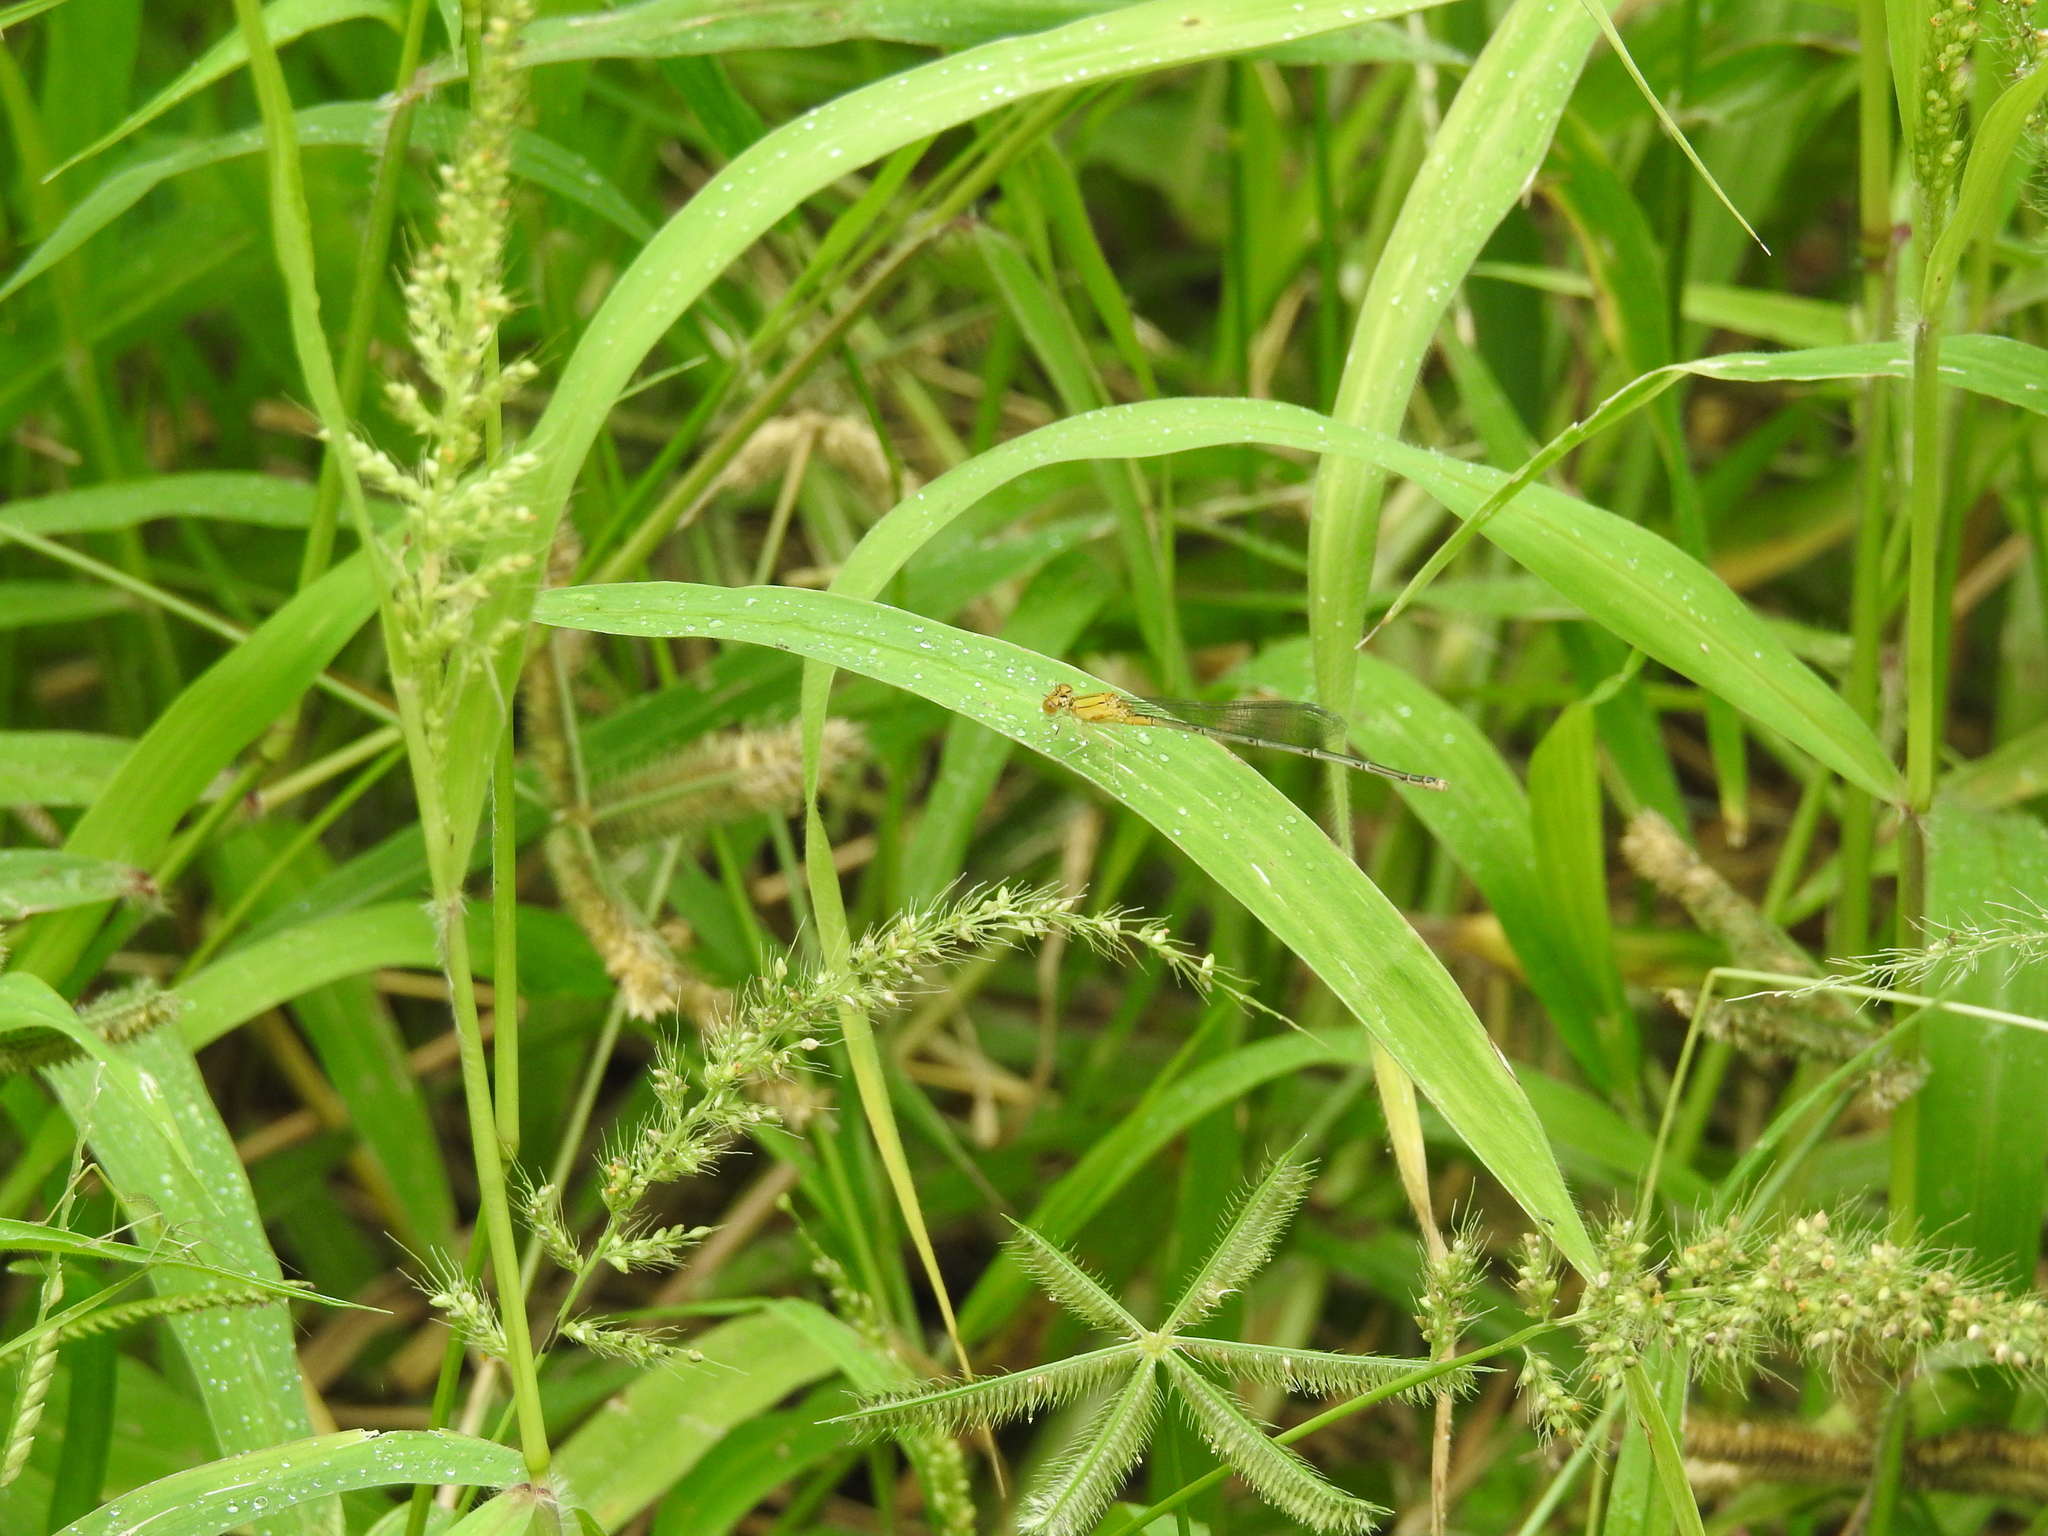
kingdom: Animalia
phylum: Arthropoda
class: Insecta
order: Odonata
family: Coenagrionidae
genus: Pseudagrion
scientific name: Pseudagrion rubriceps
